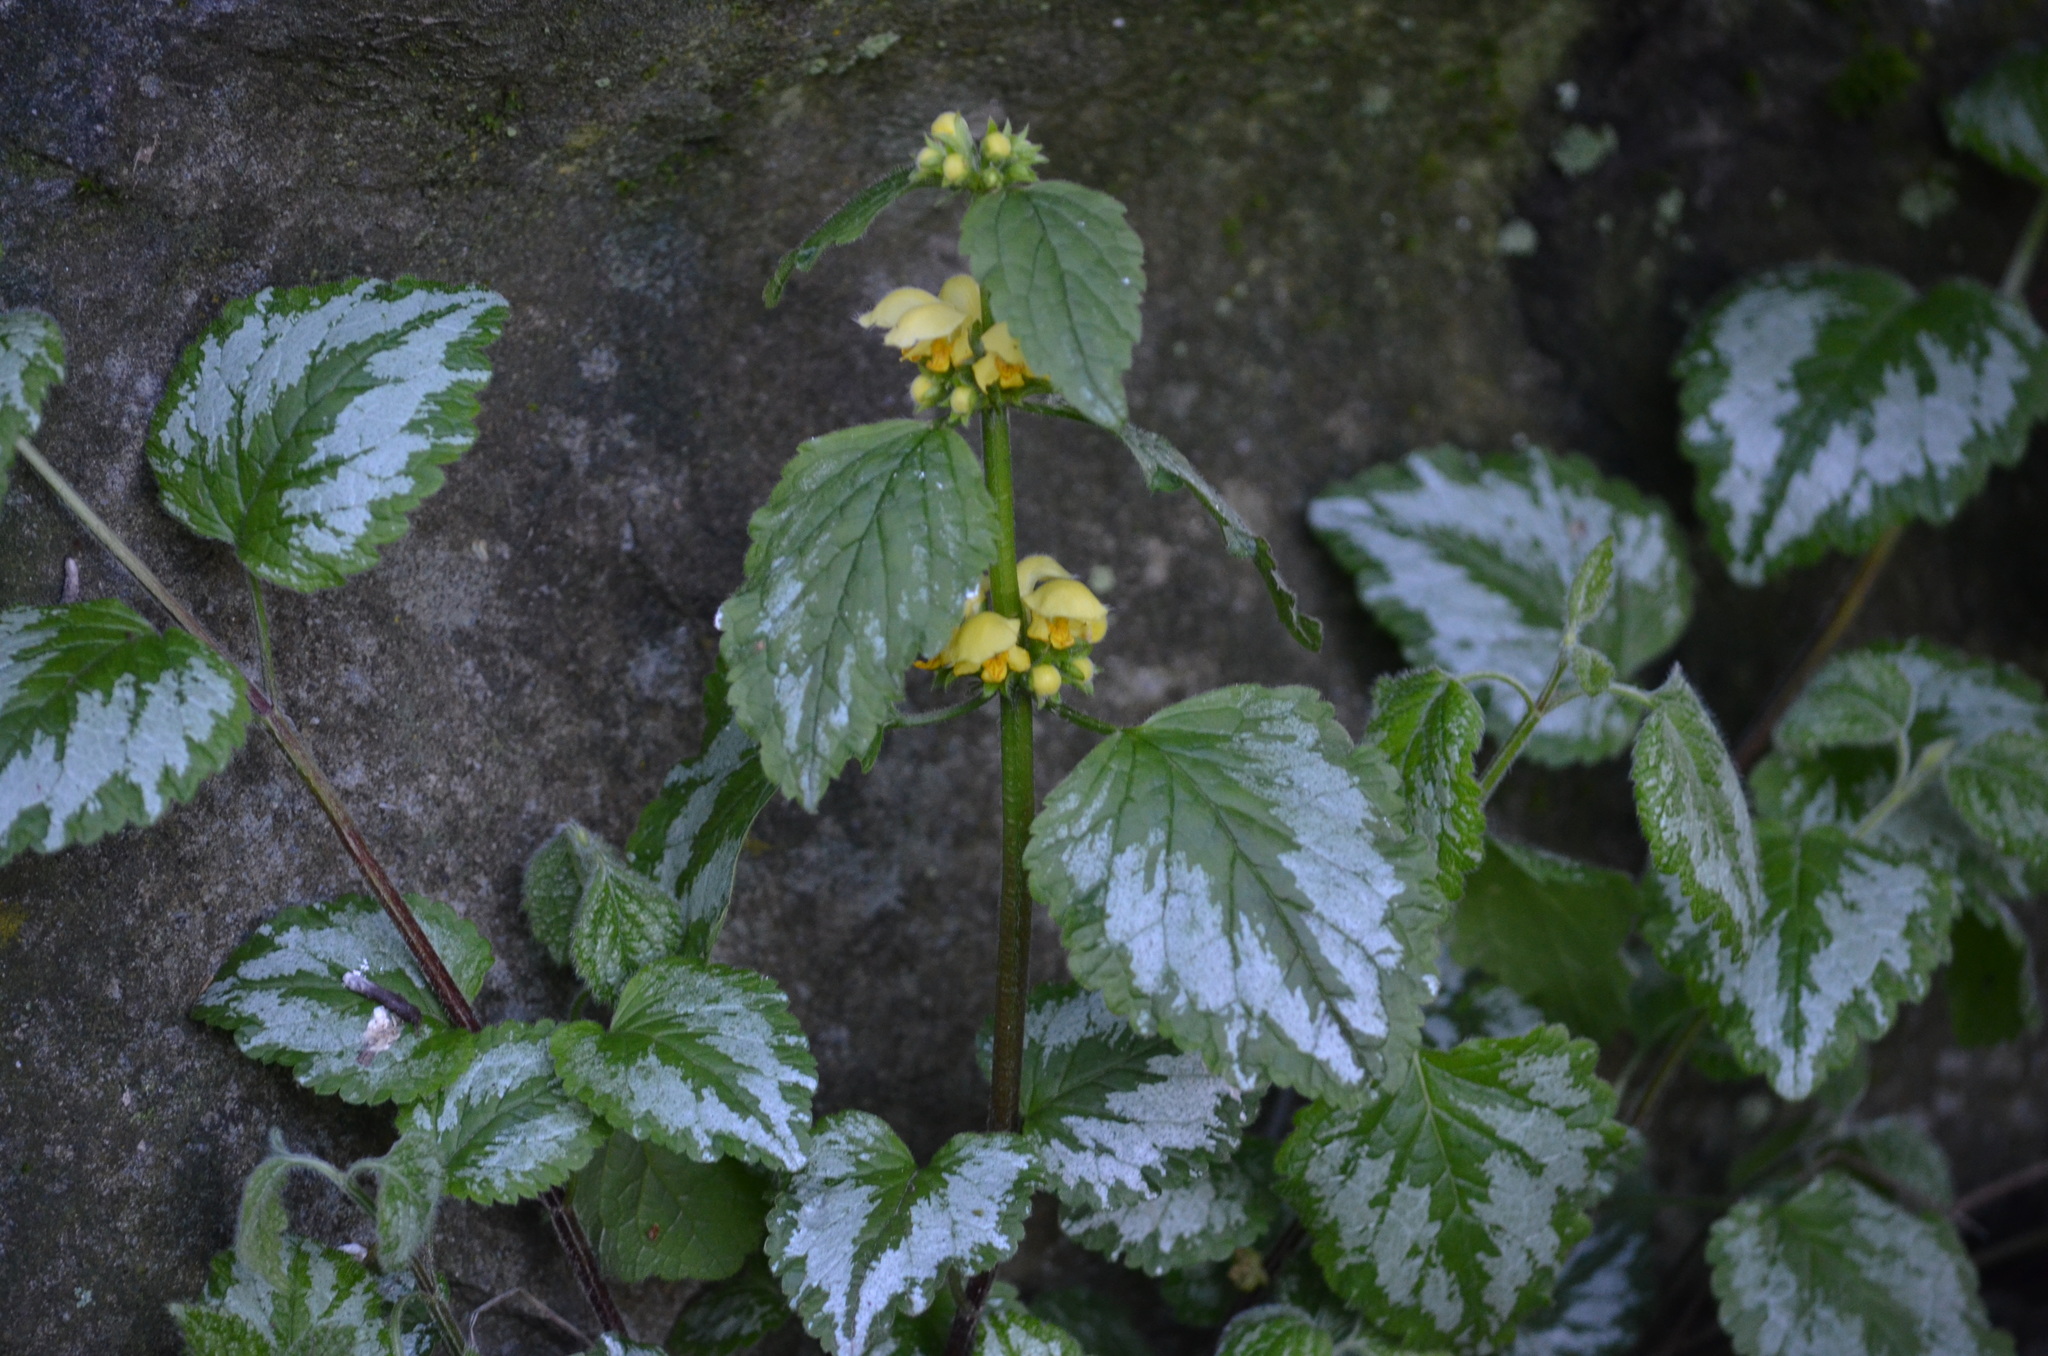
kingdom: Plantae
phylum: Tracheophyta
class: Magnoliopsida
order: Lamiales
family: Lamiaceae
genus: Lamium
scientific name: Lamium galeobdolon
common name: Yellow archangel
